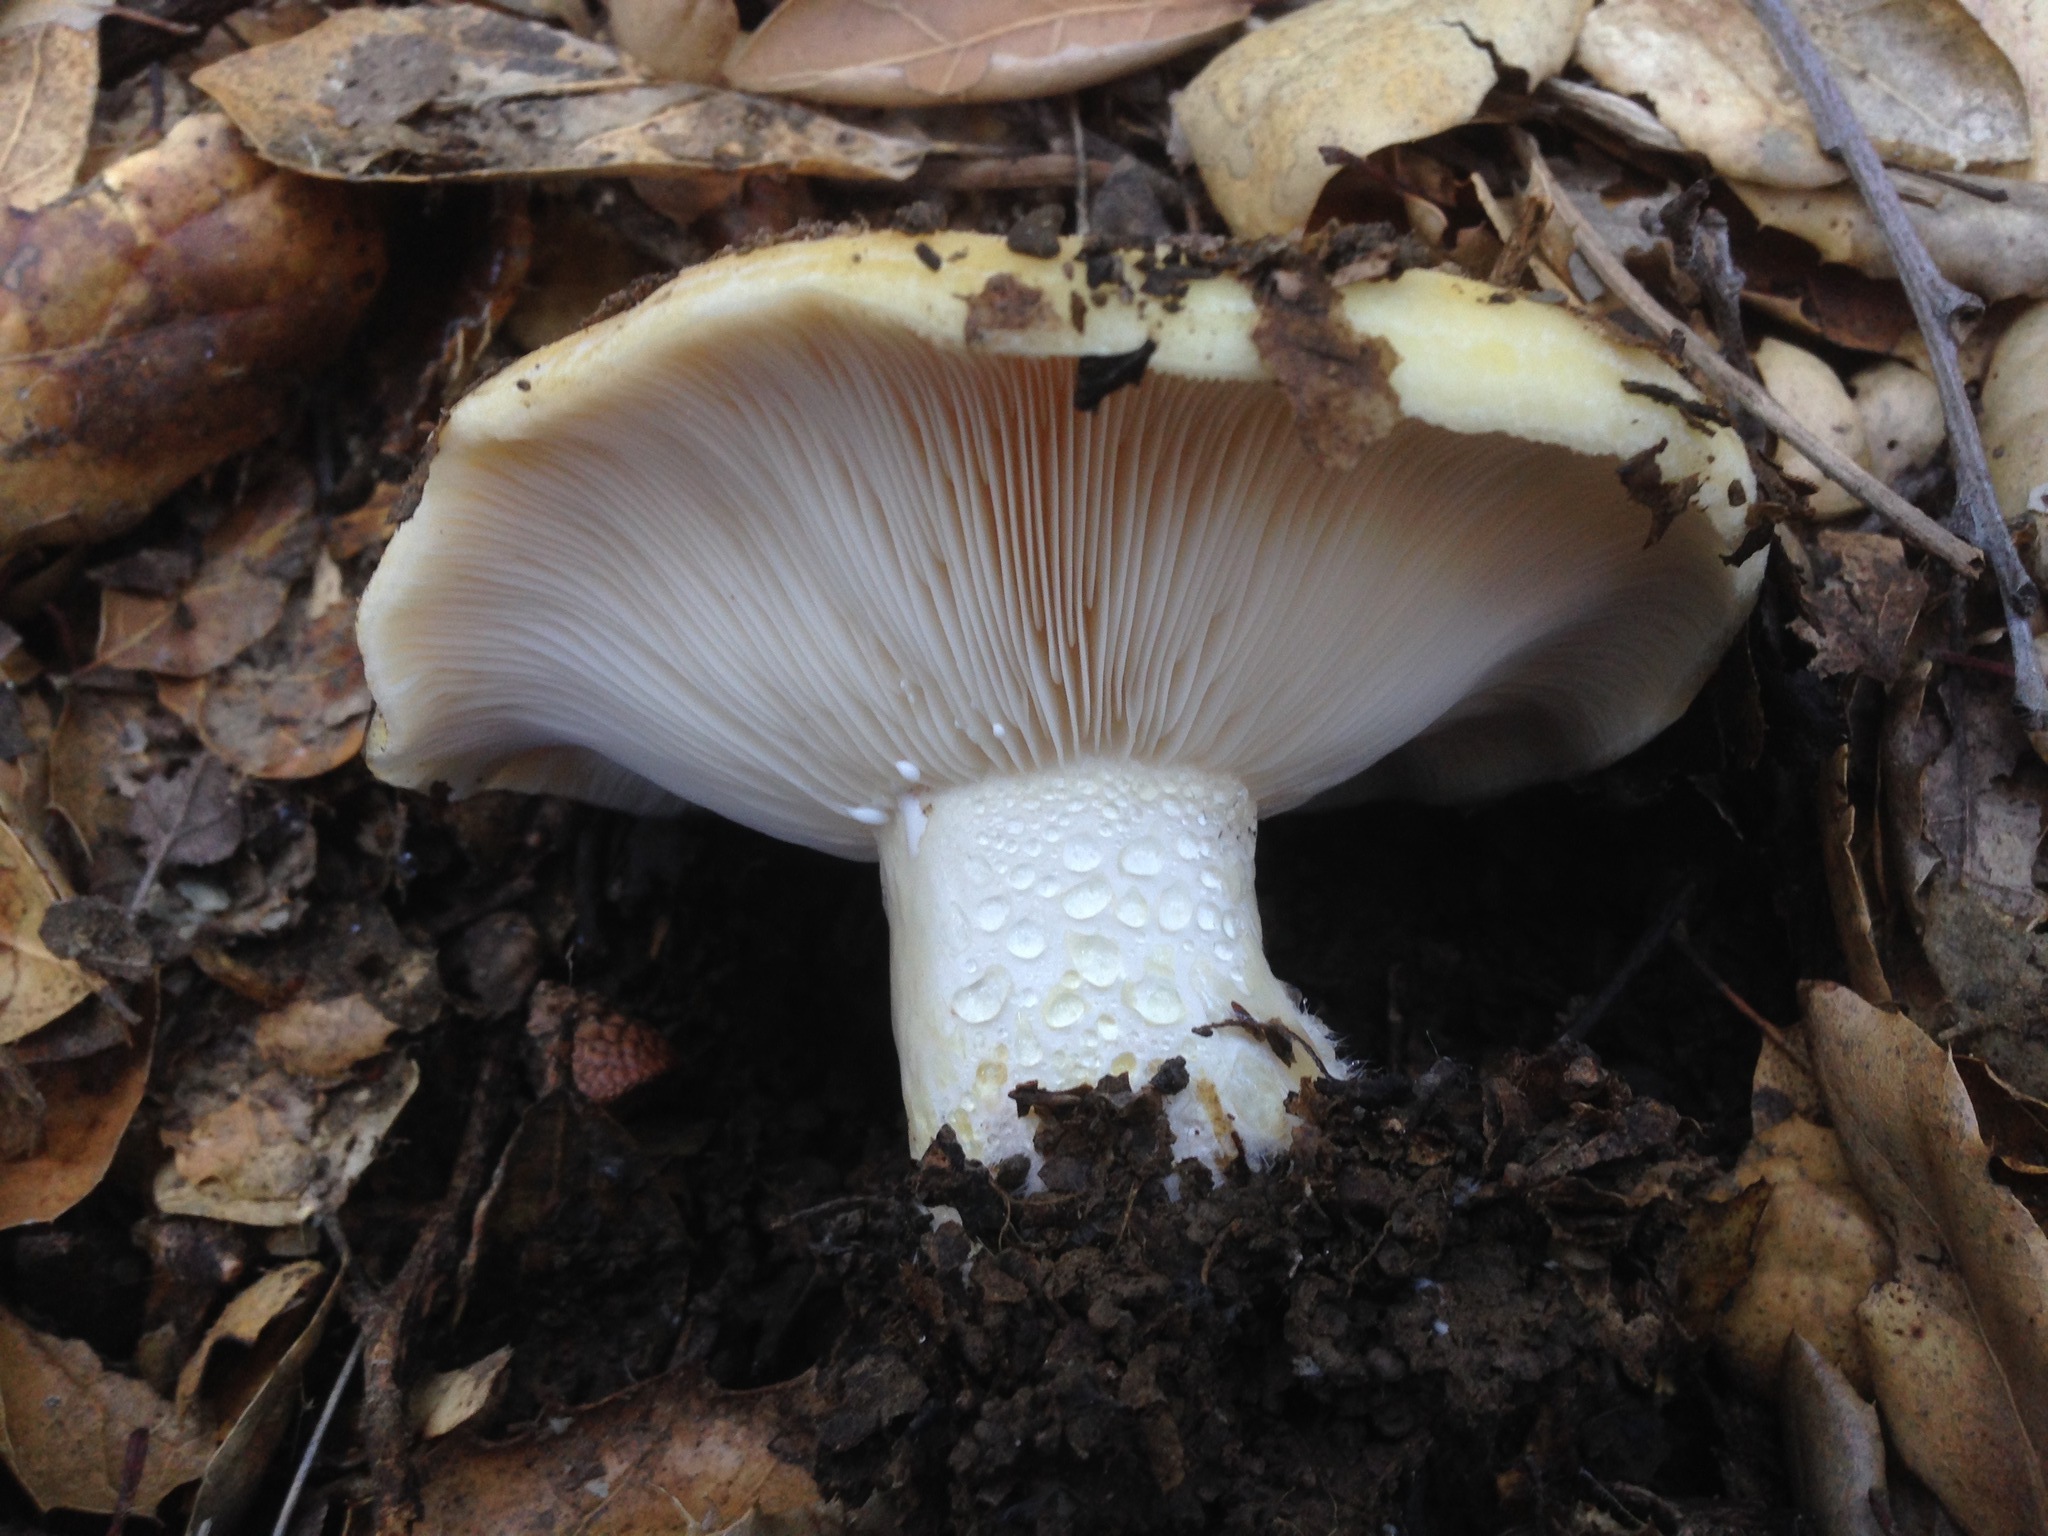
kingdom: Fungi
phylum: Basidiomycota
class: Agaricomycetes
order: Russulales
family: Russulaceae
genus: Lactarius
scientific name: Lactarius alnicola
